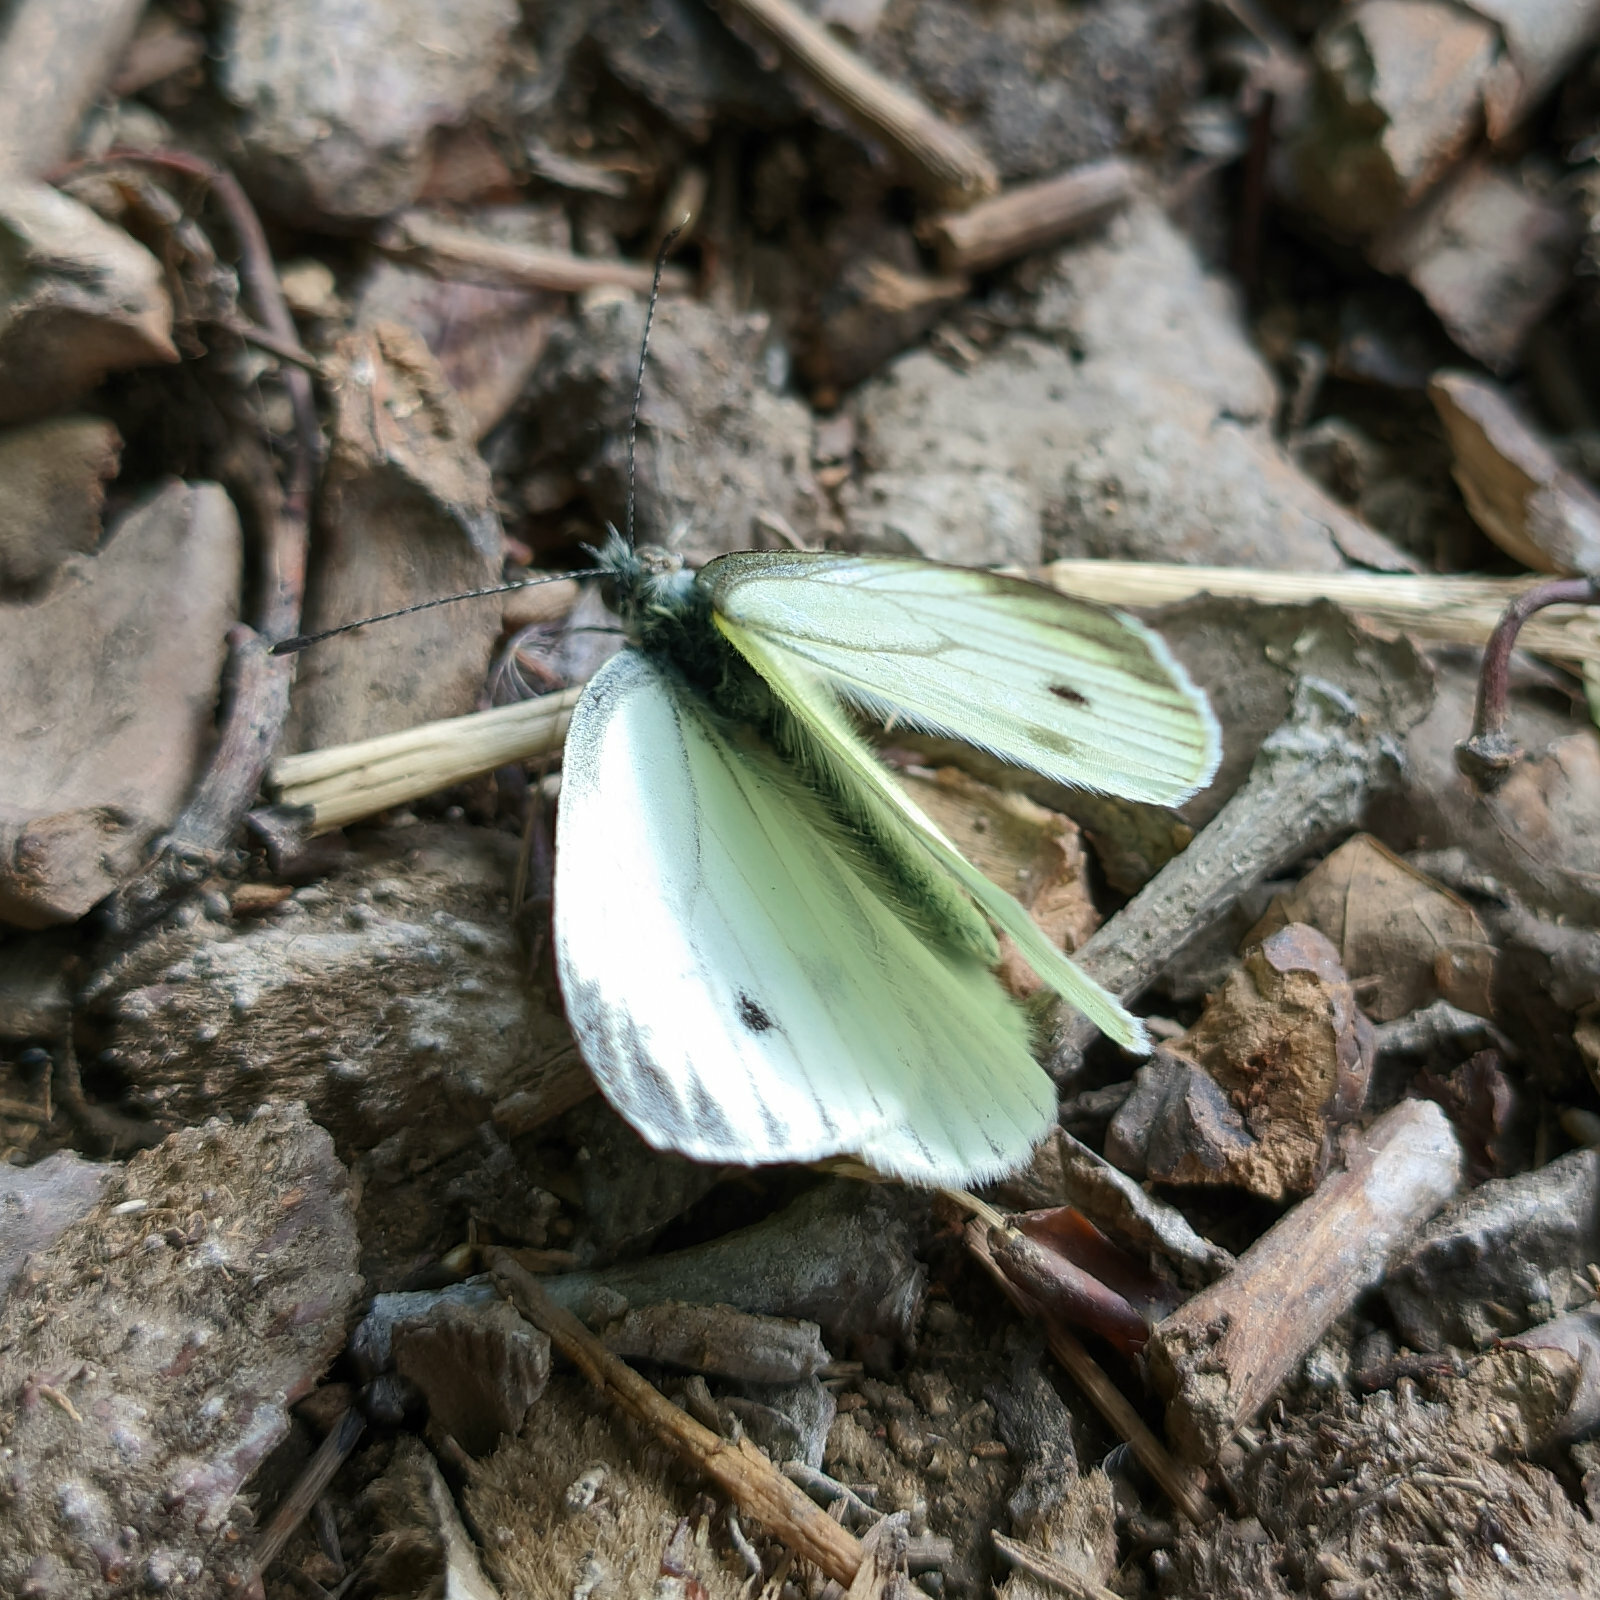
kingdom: Animalia
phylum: Arthropoda
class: Insecta
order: Lepidoptera
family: Pieridae
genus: Pieris
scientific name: Pieris napi
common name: Green-veined white
